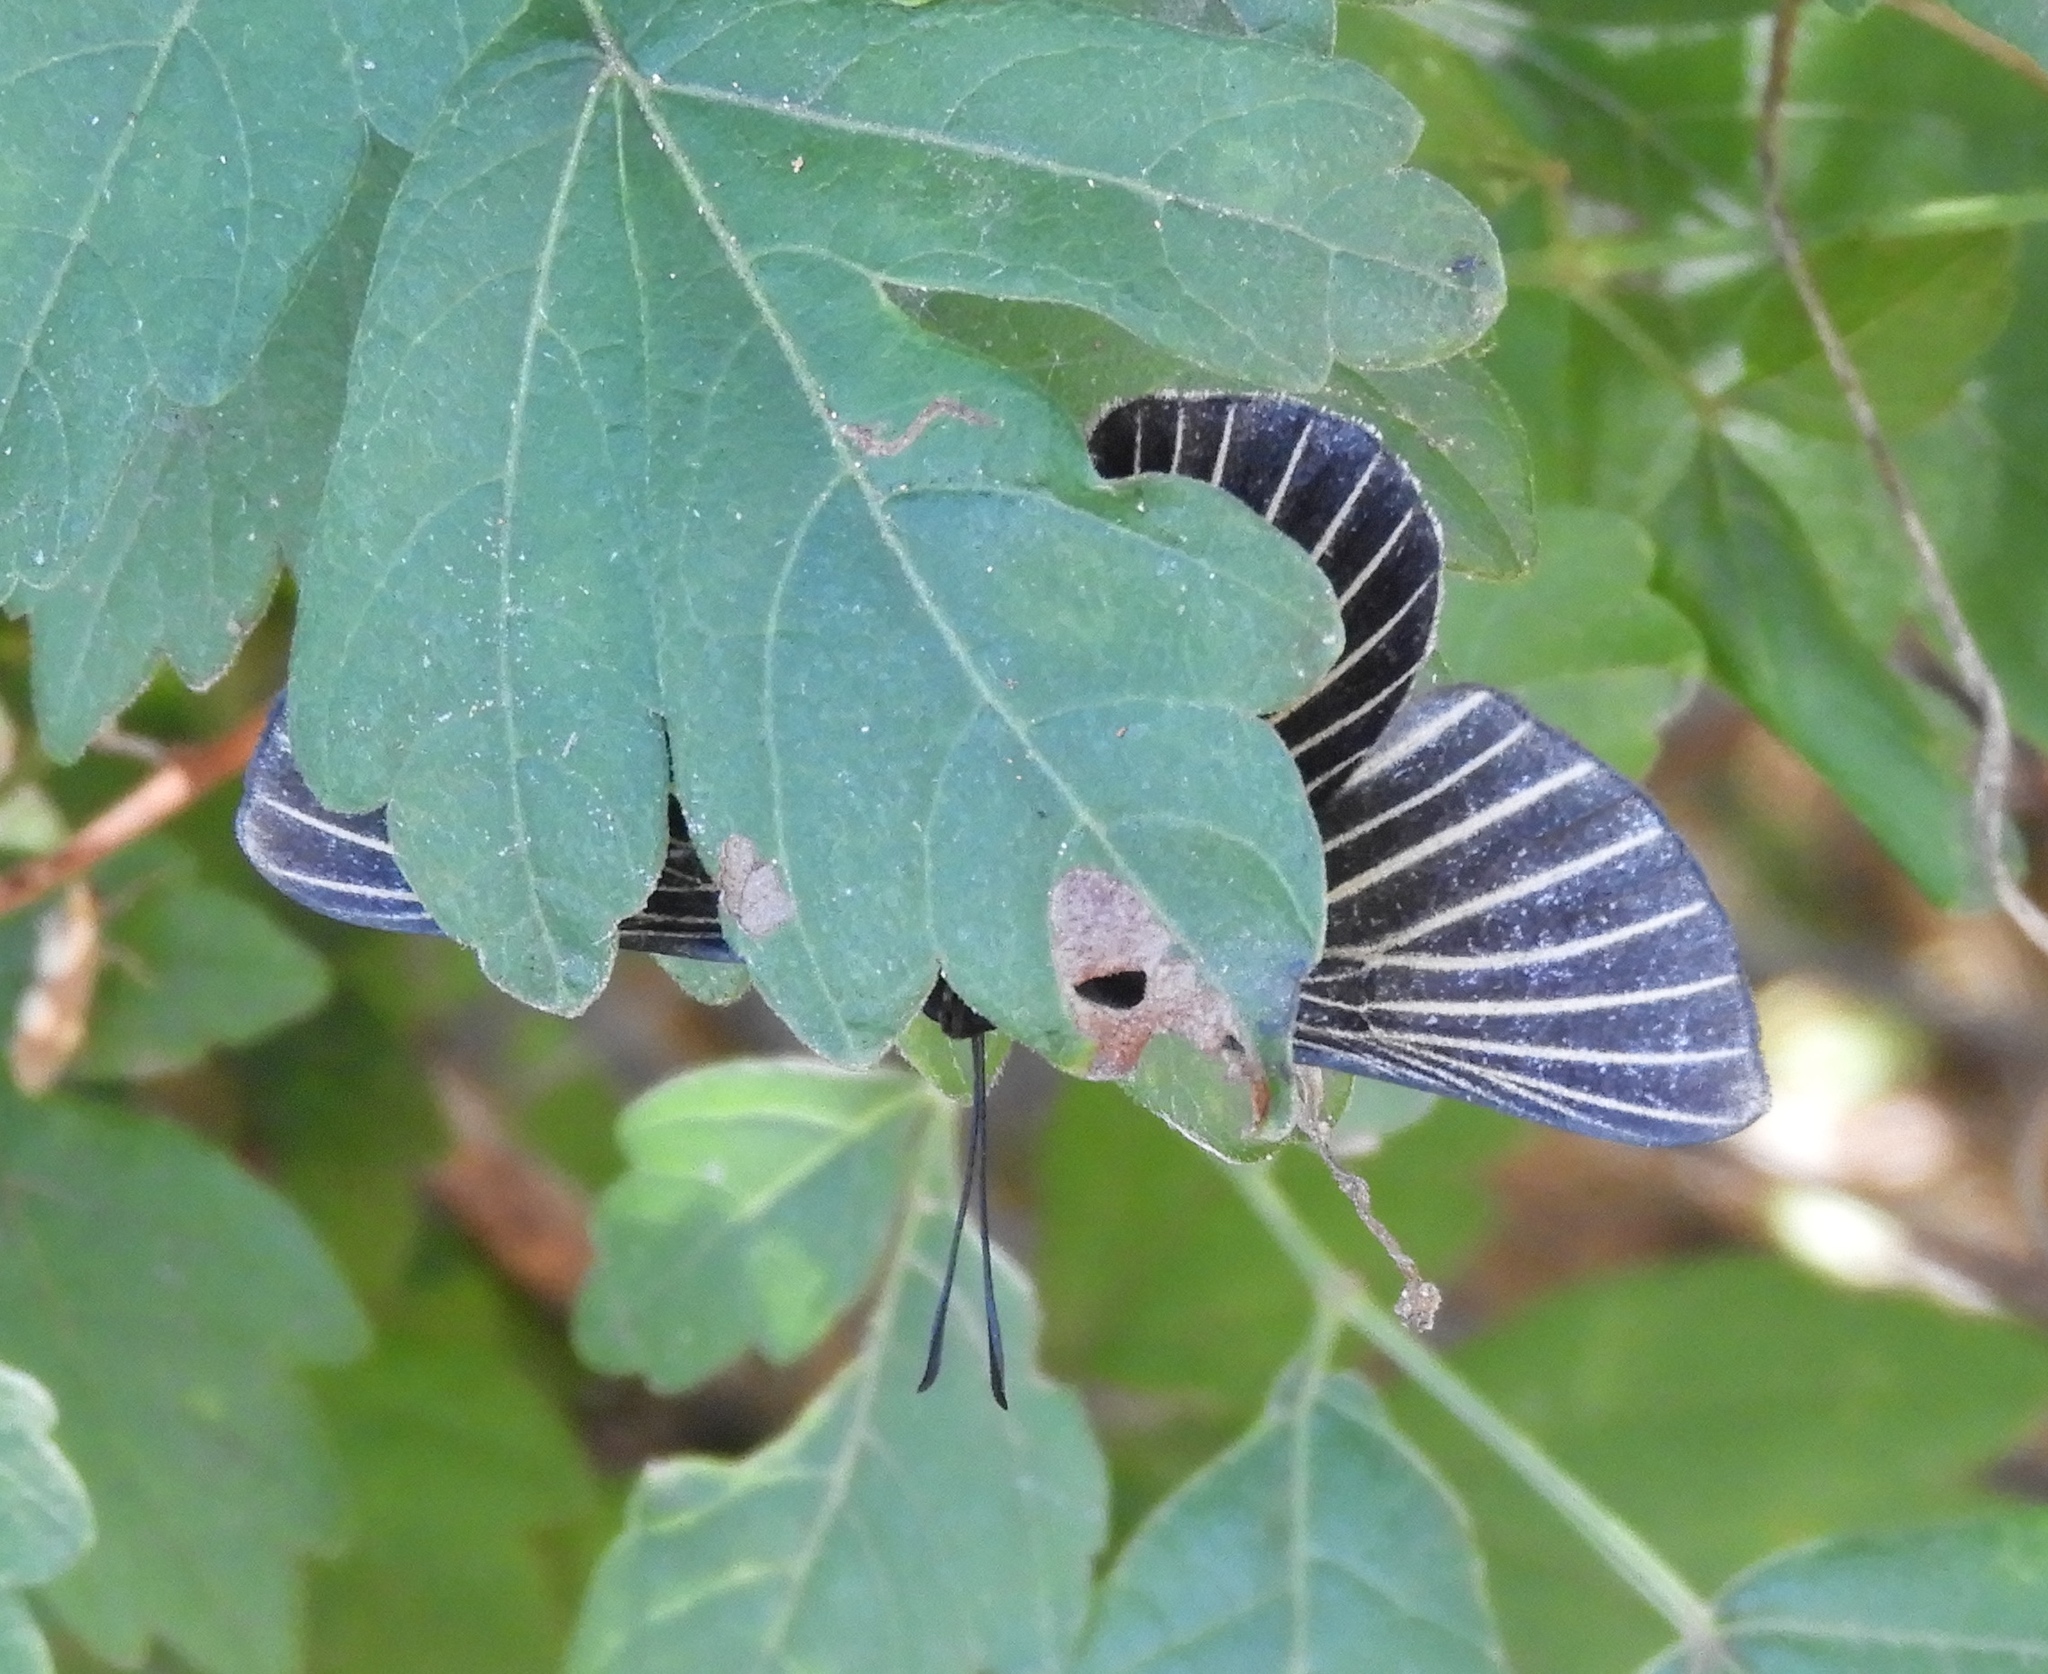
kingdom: Animalia
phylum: Arthropoda
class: Insecta
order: Lepidoptera
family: Lycaenidae
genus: Melanis
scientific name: Melanis
